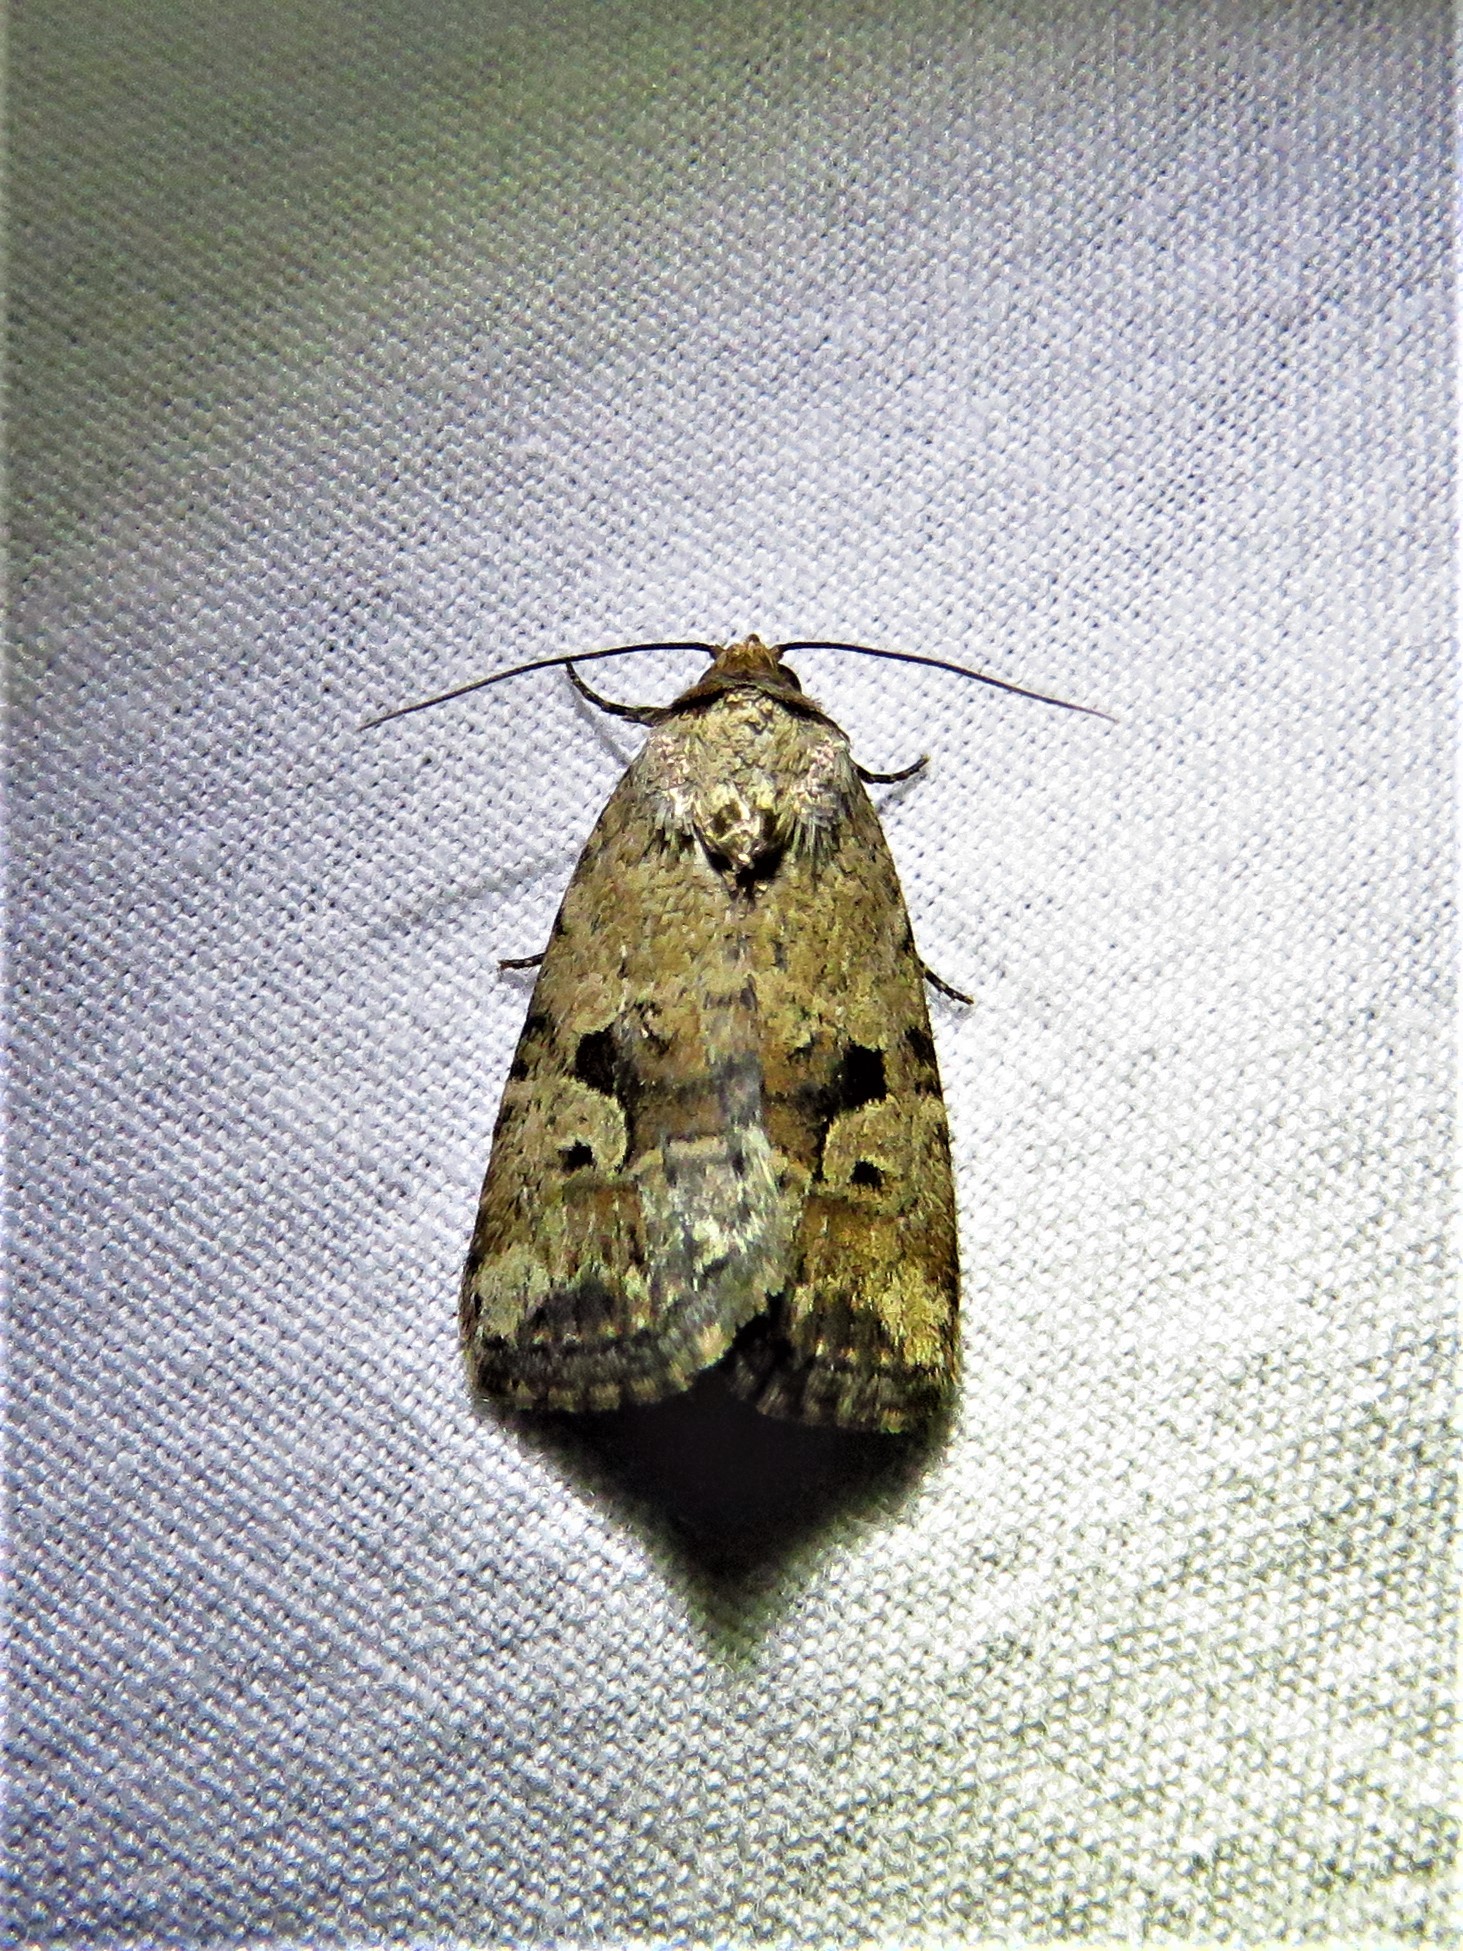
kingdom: Animalia
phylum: Arthropoda
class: Insecta
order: Lepidoptera
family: Noctuidae
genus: Elaphria
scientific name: Elaphria festivoides
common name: Festive midget
